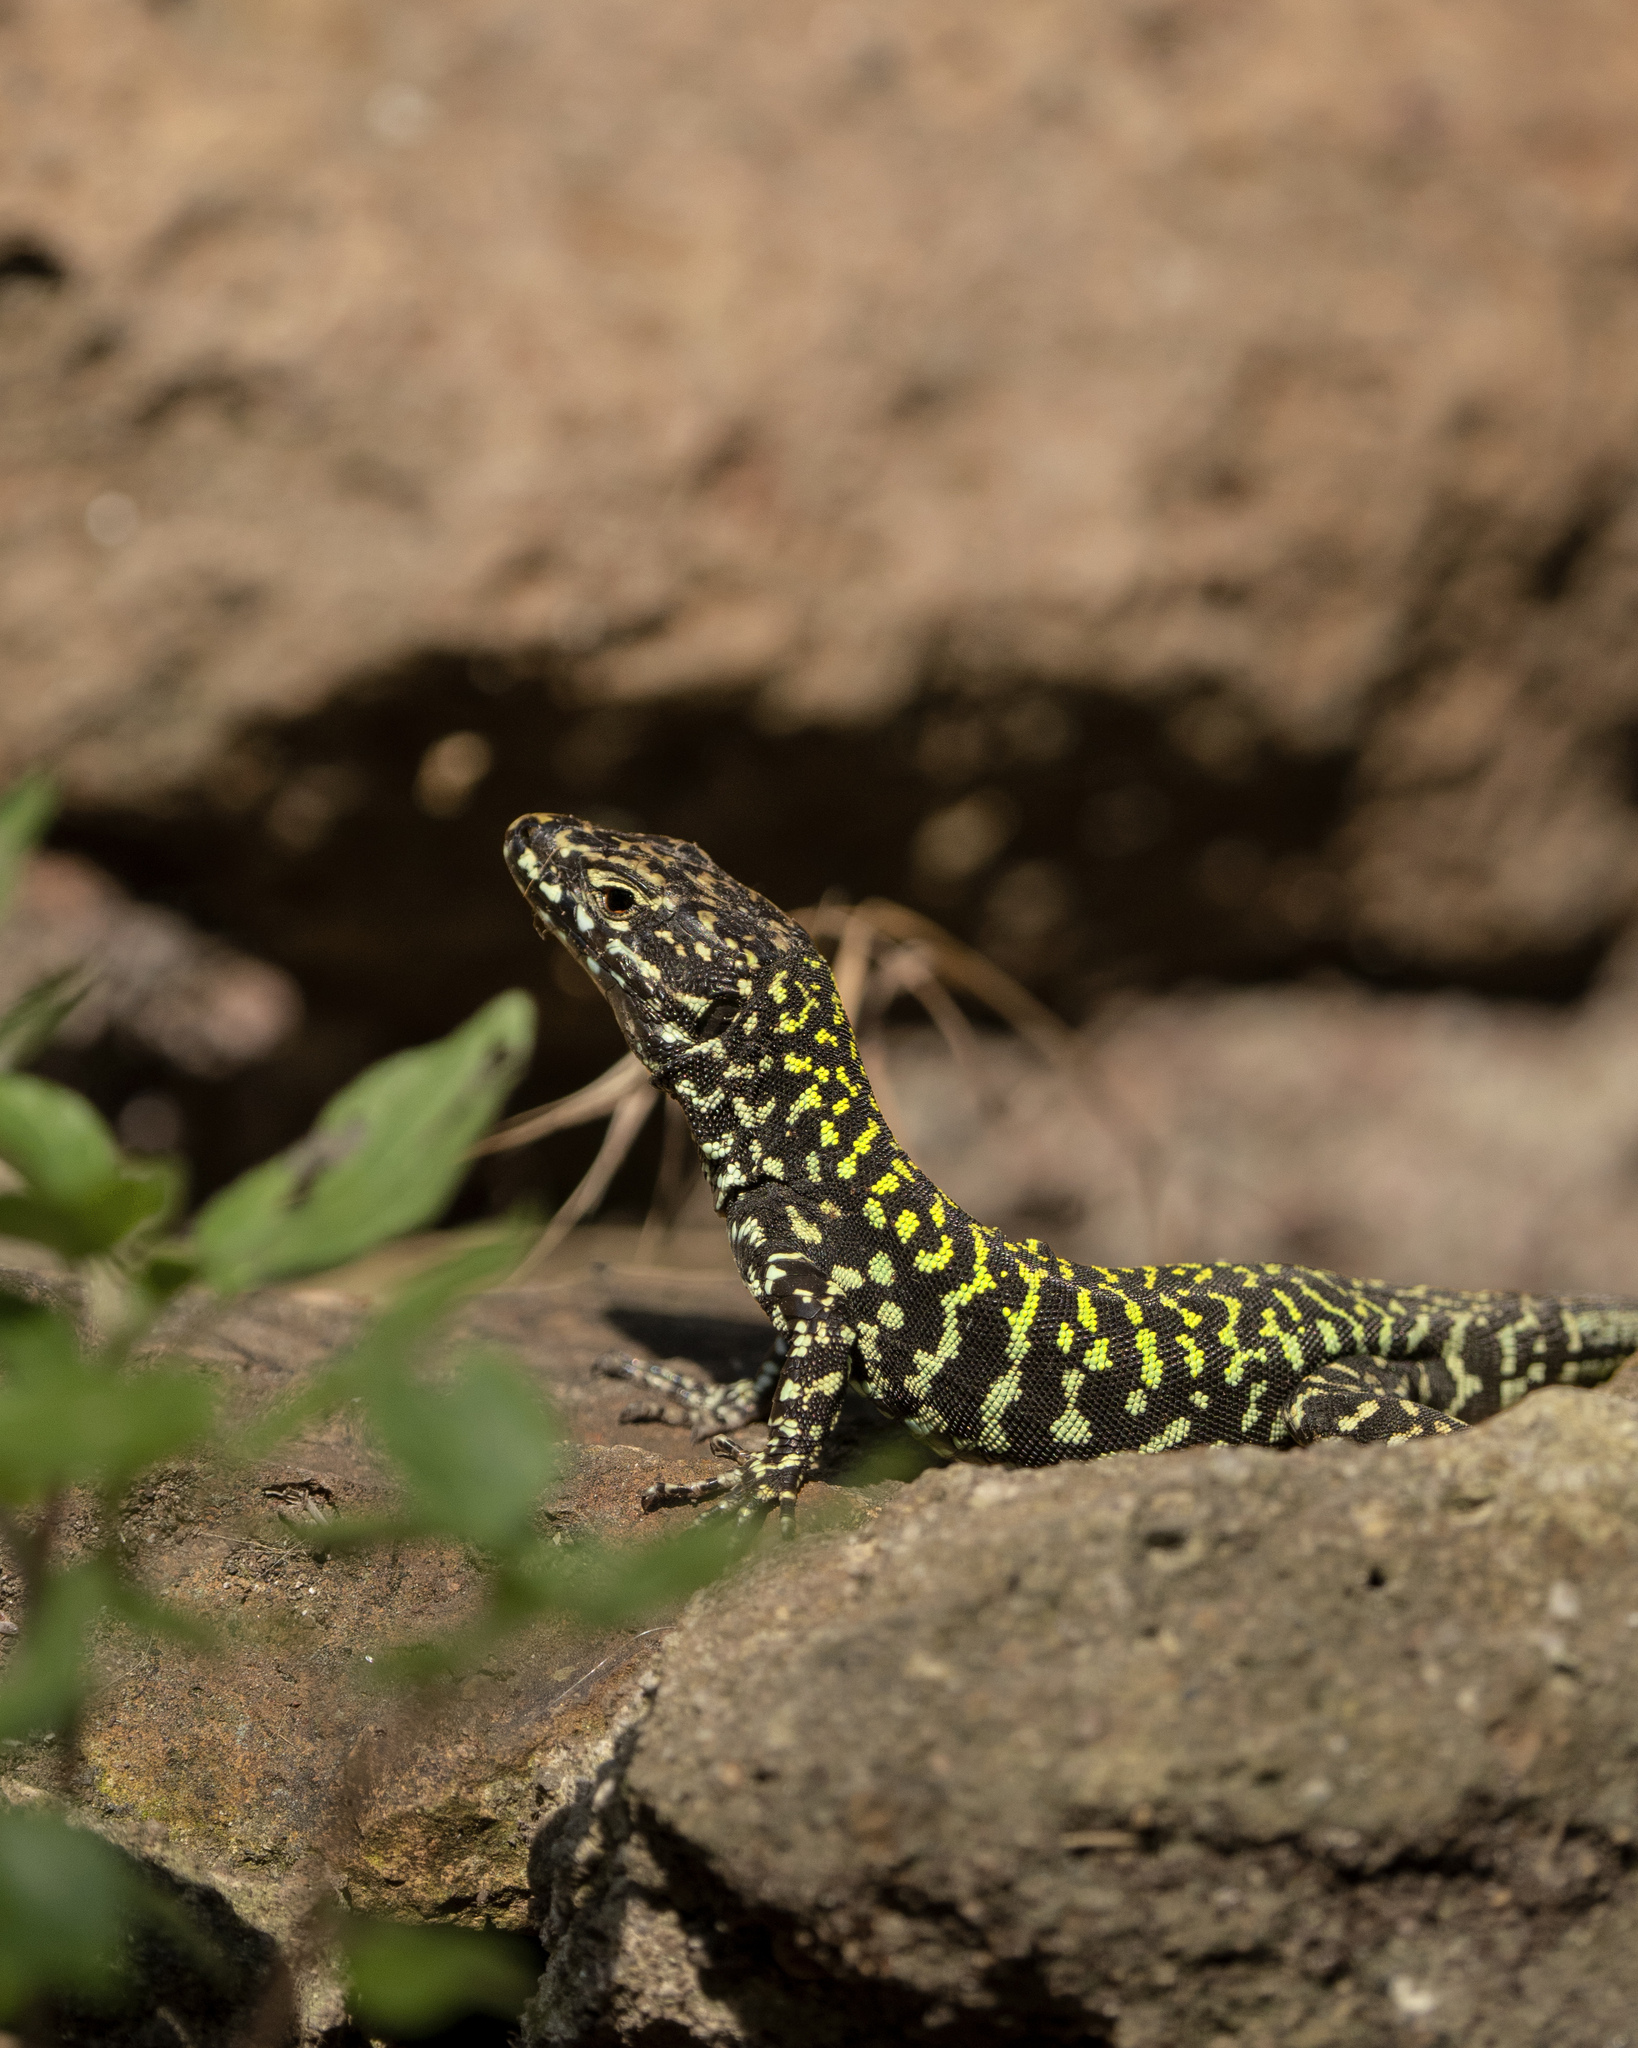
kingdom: Animalia
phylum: Chordata
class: Squamata
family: Lacertidae
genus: Podarcis
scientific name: Podarcis muralis
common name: Common wall lizard
